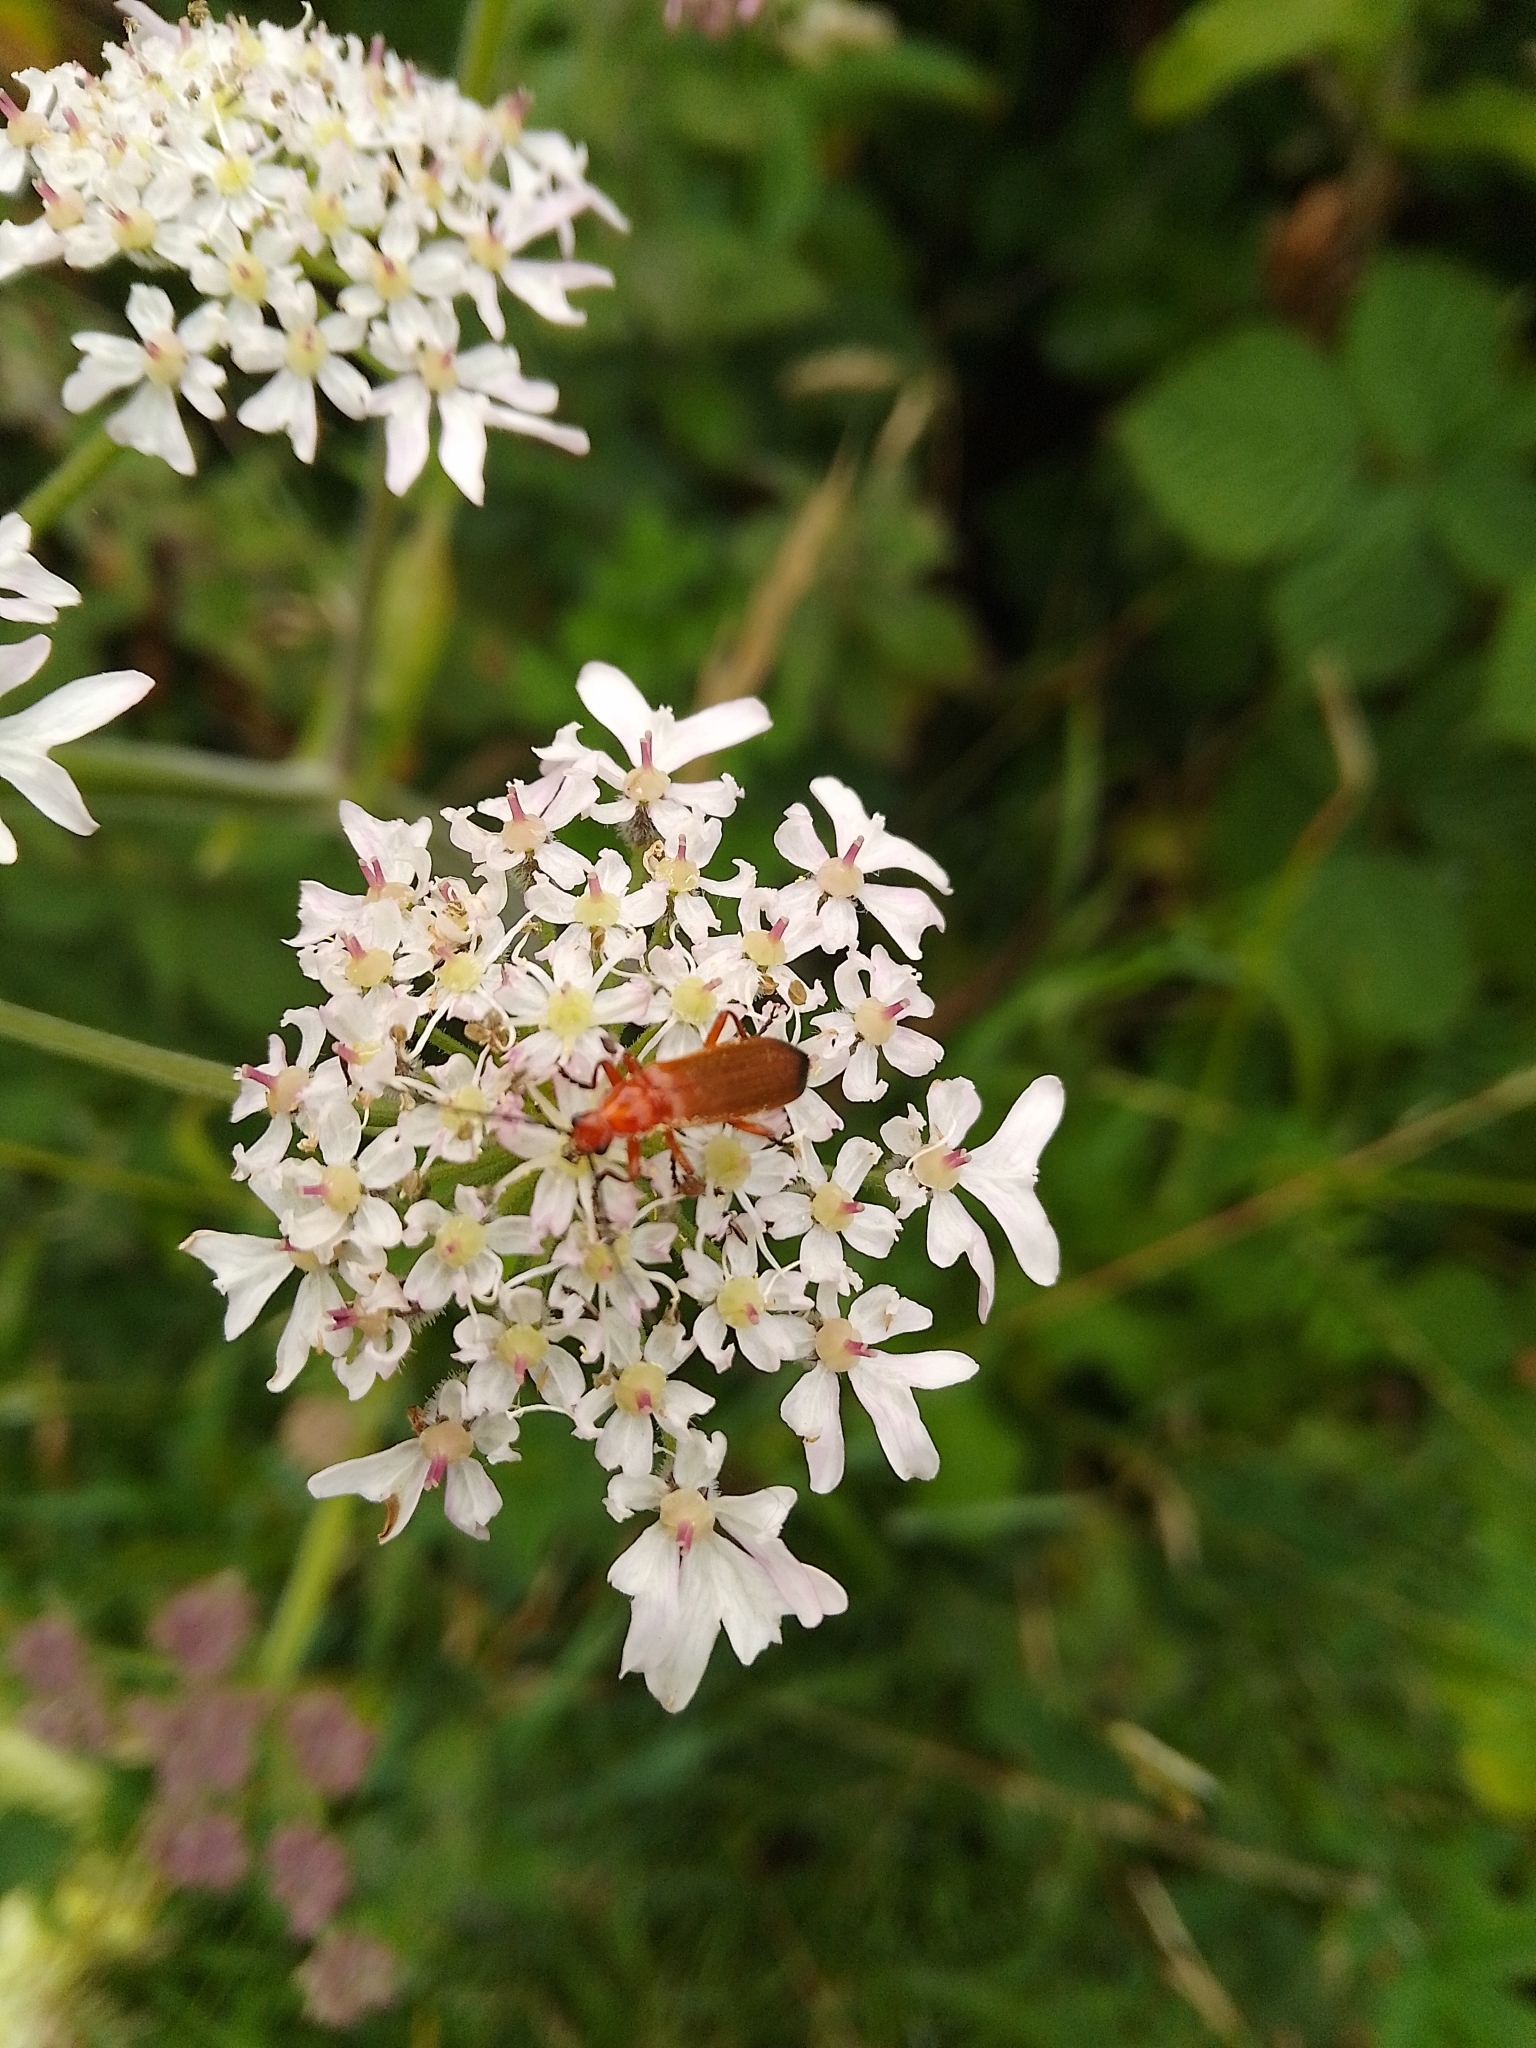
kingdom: Animalia
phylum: Arthropoda
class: Insecta
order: Coleoptera
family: Cantharidae
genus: Rhagonycha
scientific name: Rhagonycha fulva
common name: Common red soldier beetle
